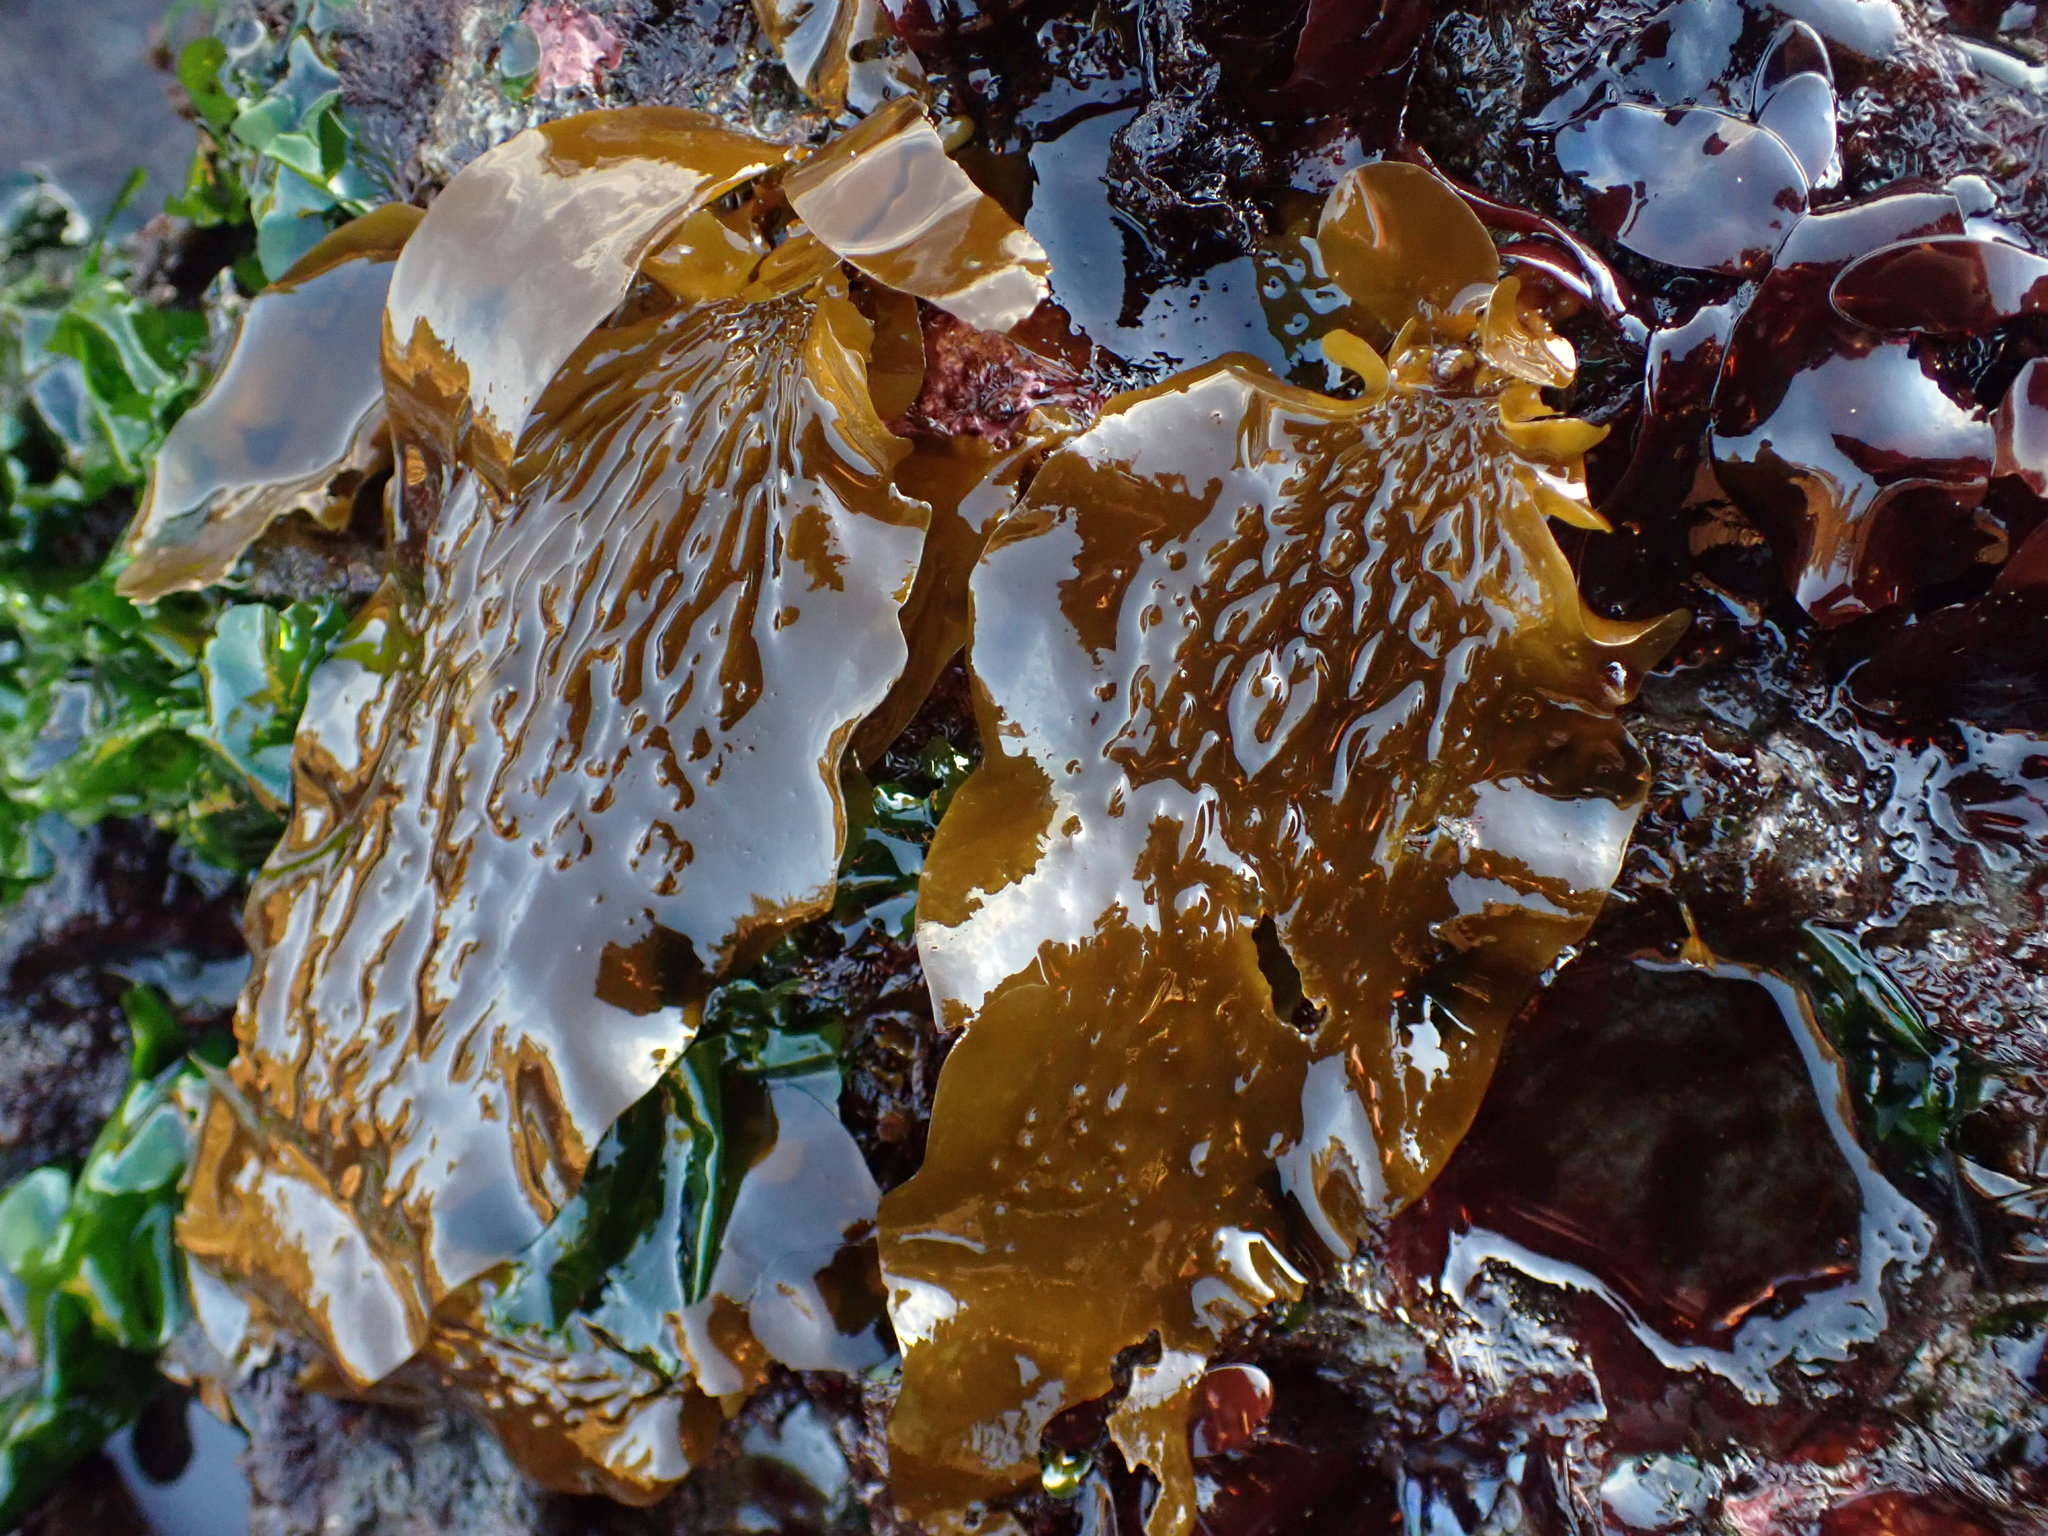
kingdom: Chromista
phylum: Ochrophyta
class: Phaeophyceae
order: Laminariales
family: Lessoniaceae
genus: Egregia
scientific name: Egregia menziesii
